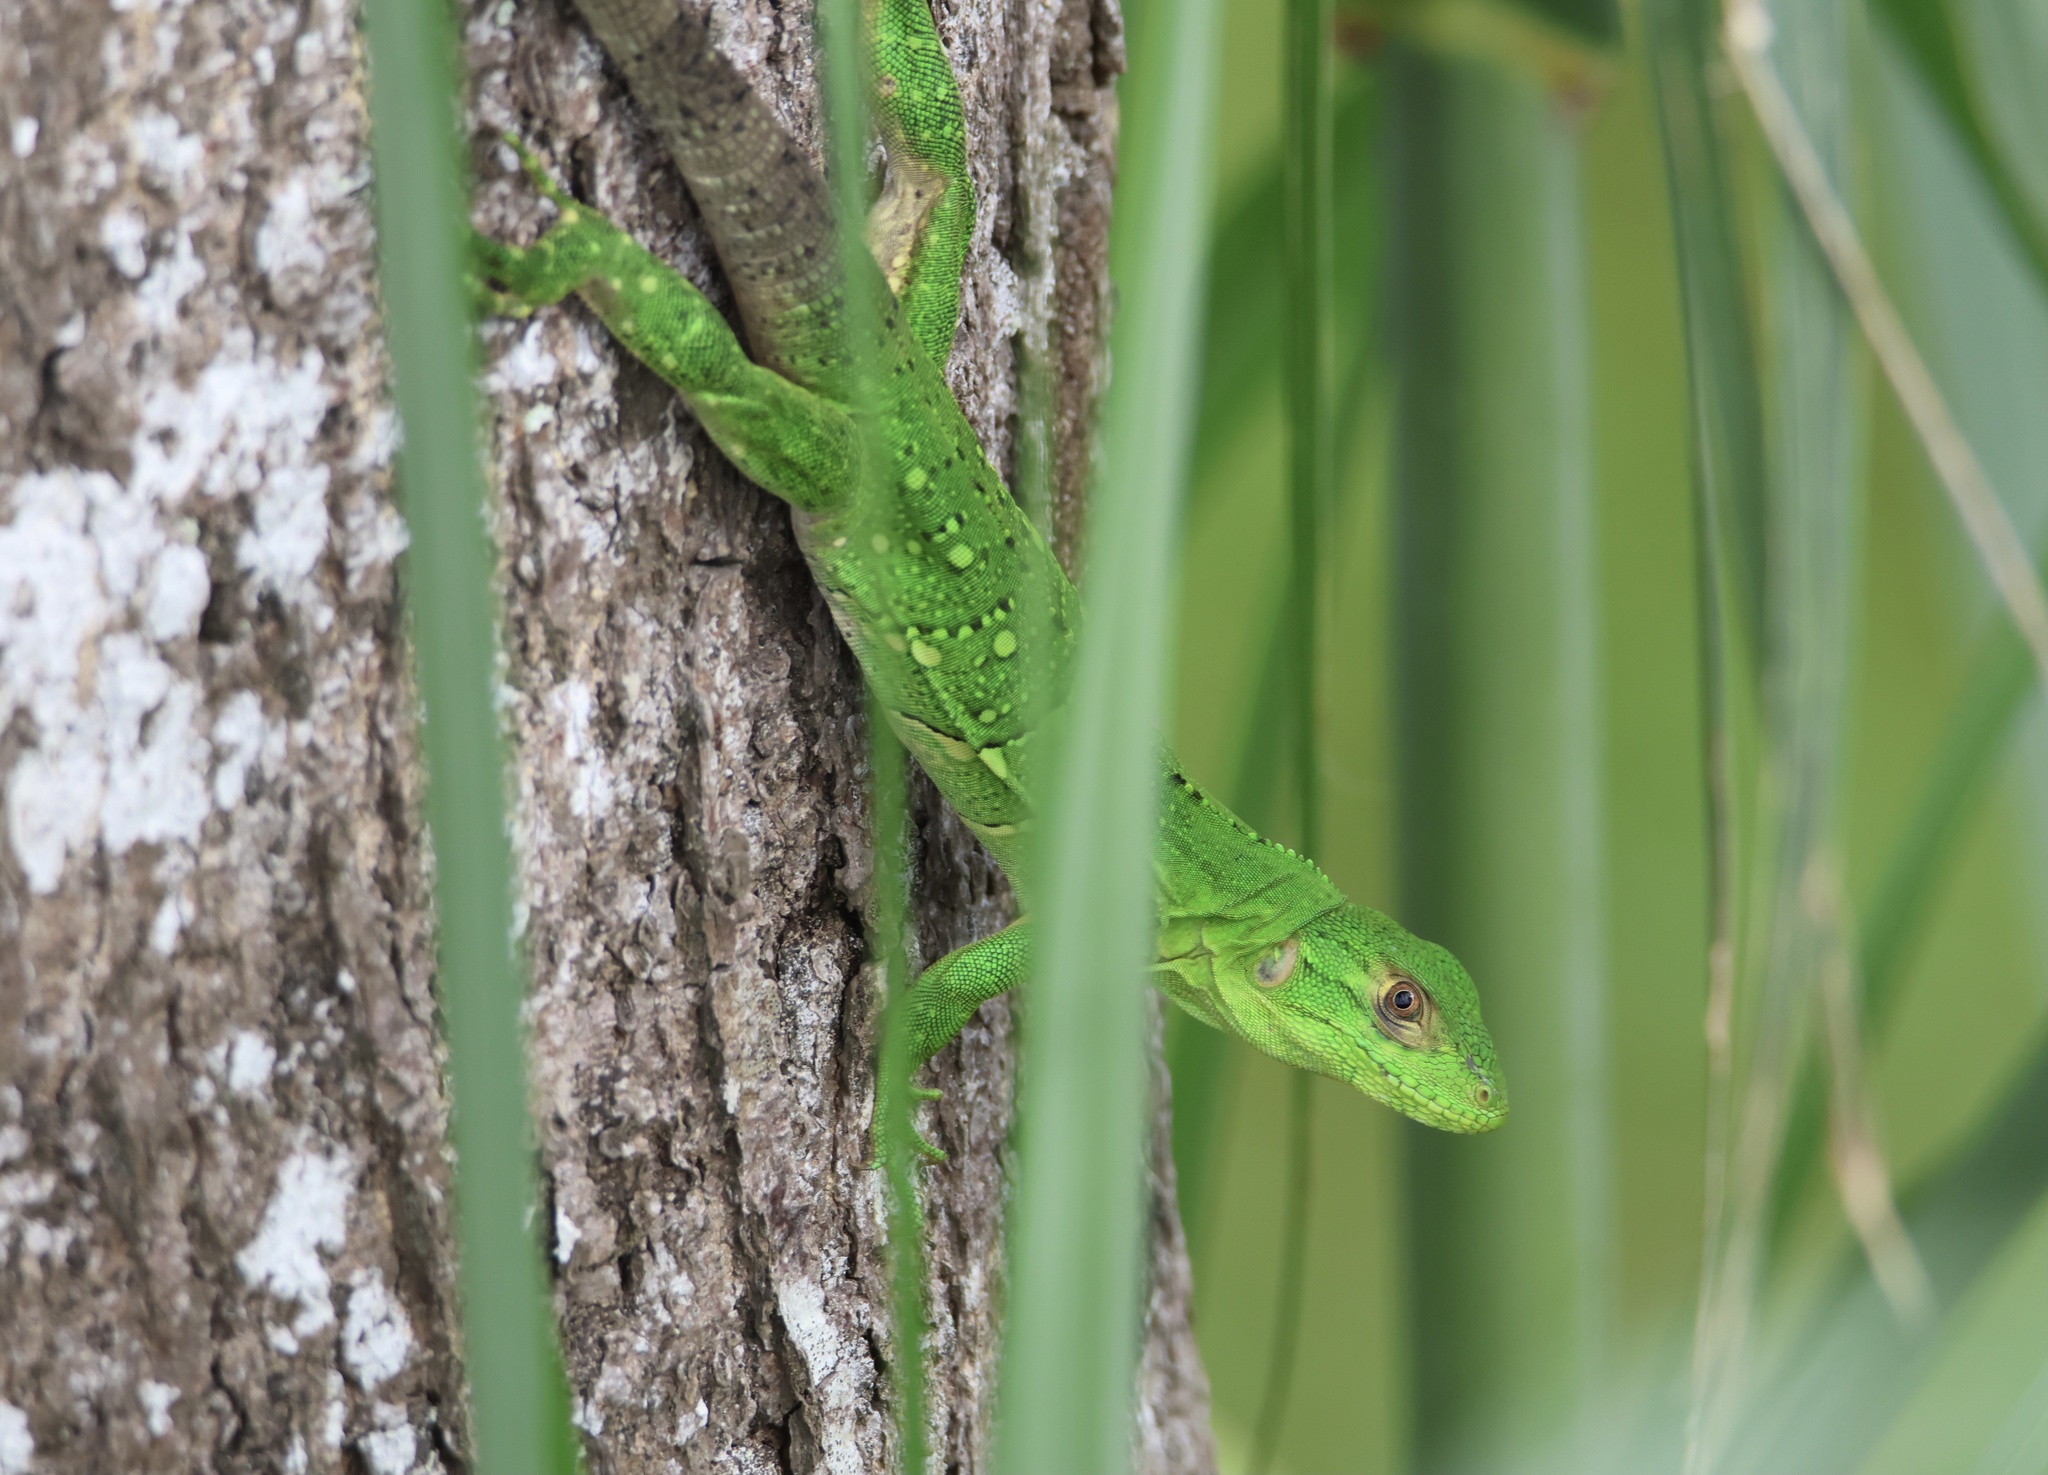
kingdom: Animalia
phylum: Chordata
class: Squamata
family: Iguanidae
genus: Iguana
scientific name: Iguana iguana
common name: Green iguana
